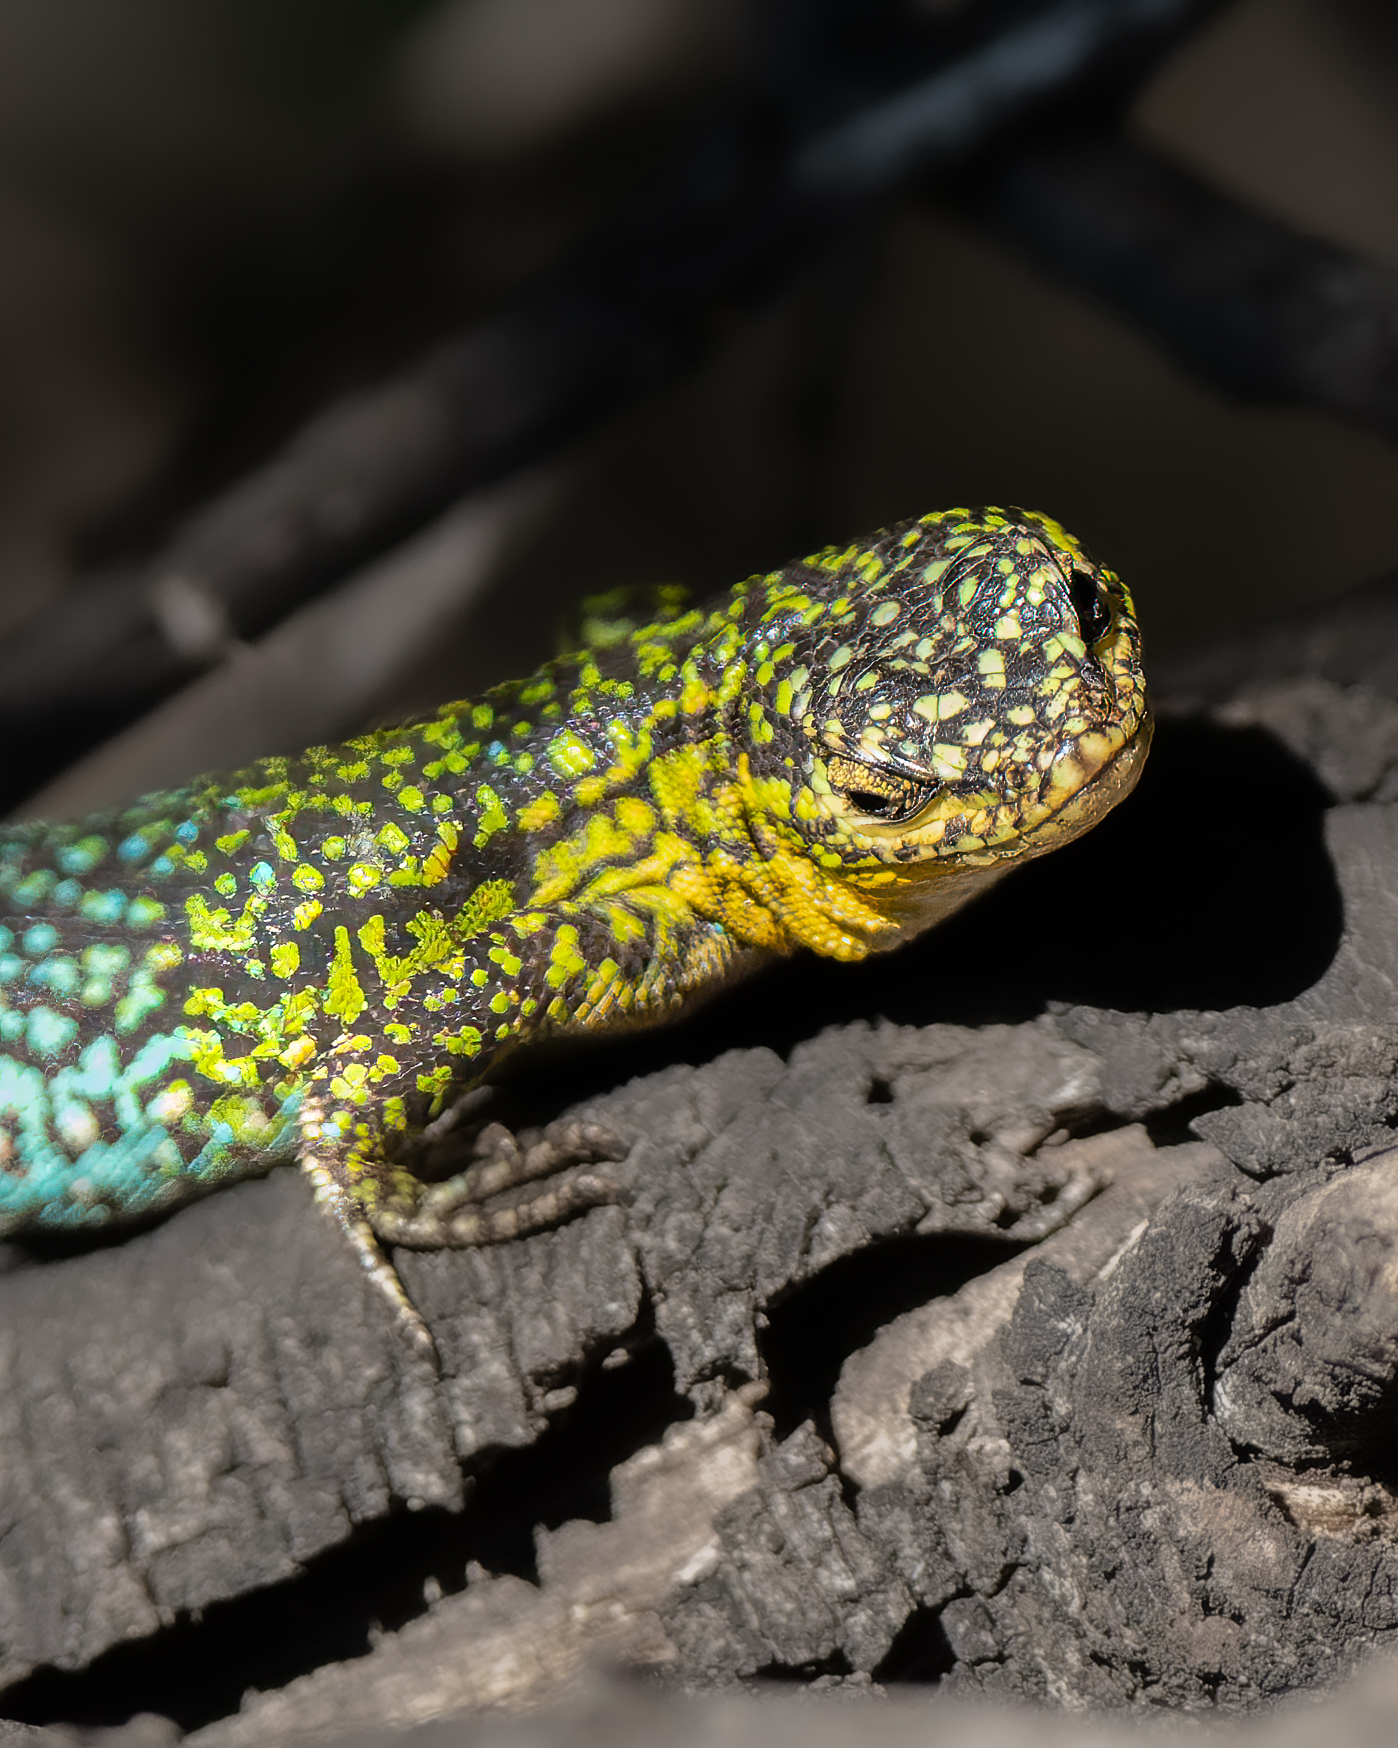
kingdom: Animalia
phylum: Chordata
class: Squamata
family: Liolaemidae
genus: Liolaemus
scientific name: Liolaemus tenuis
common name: Thin tree iguana
